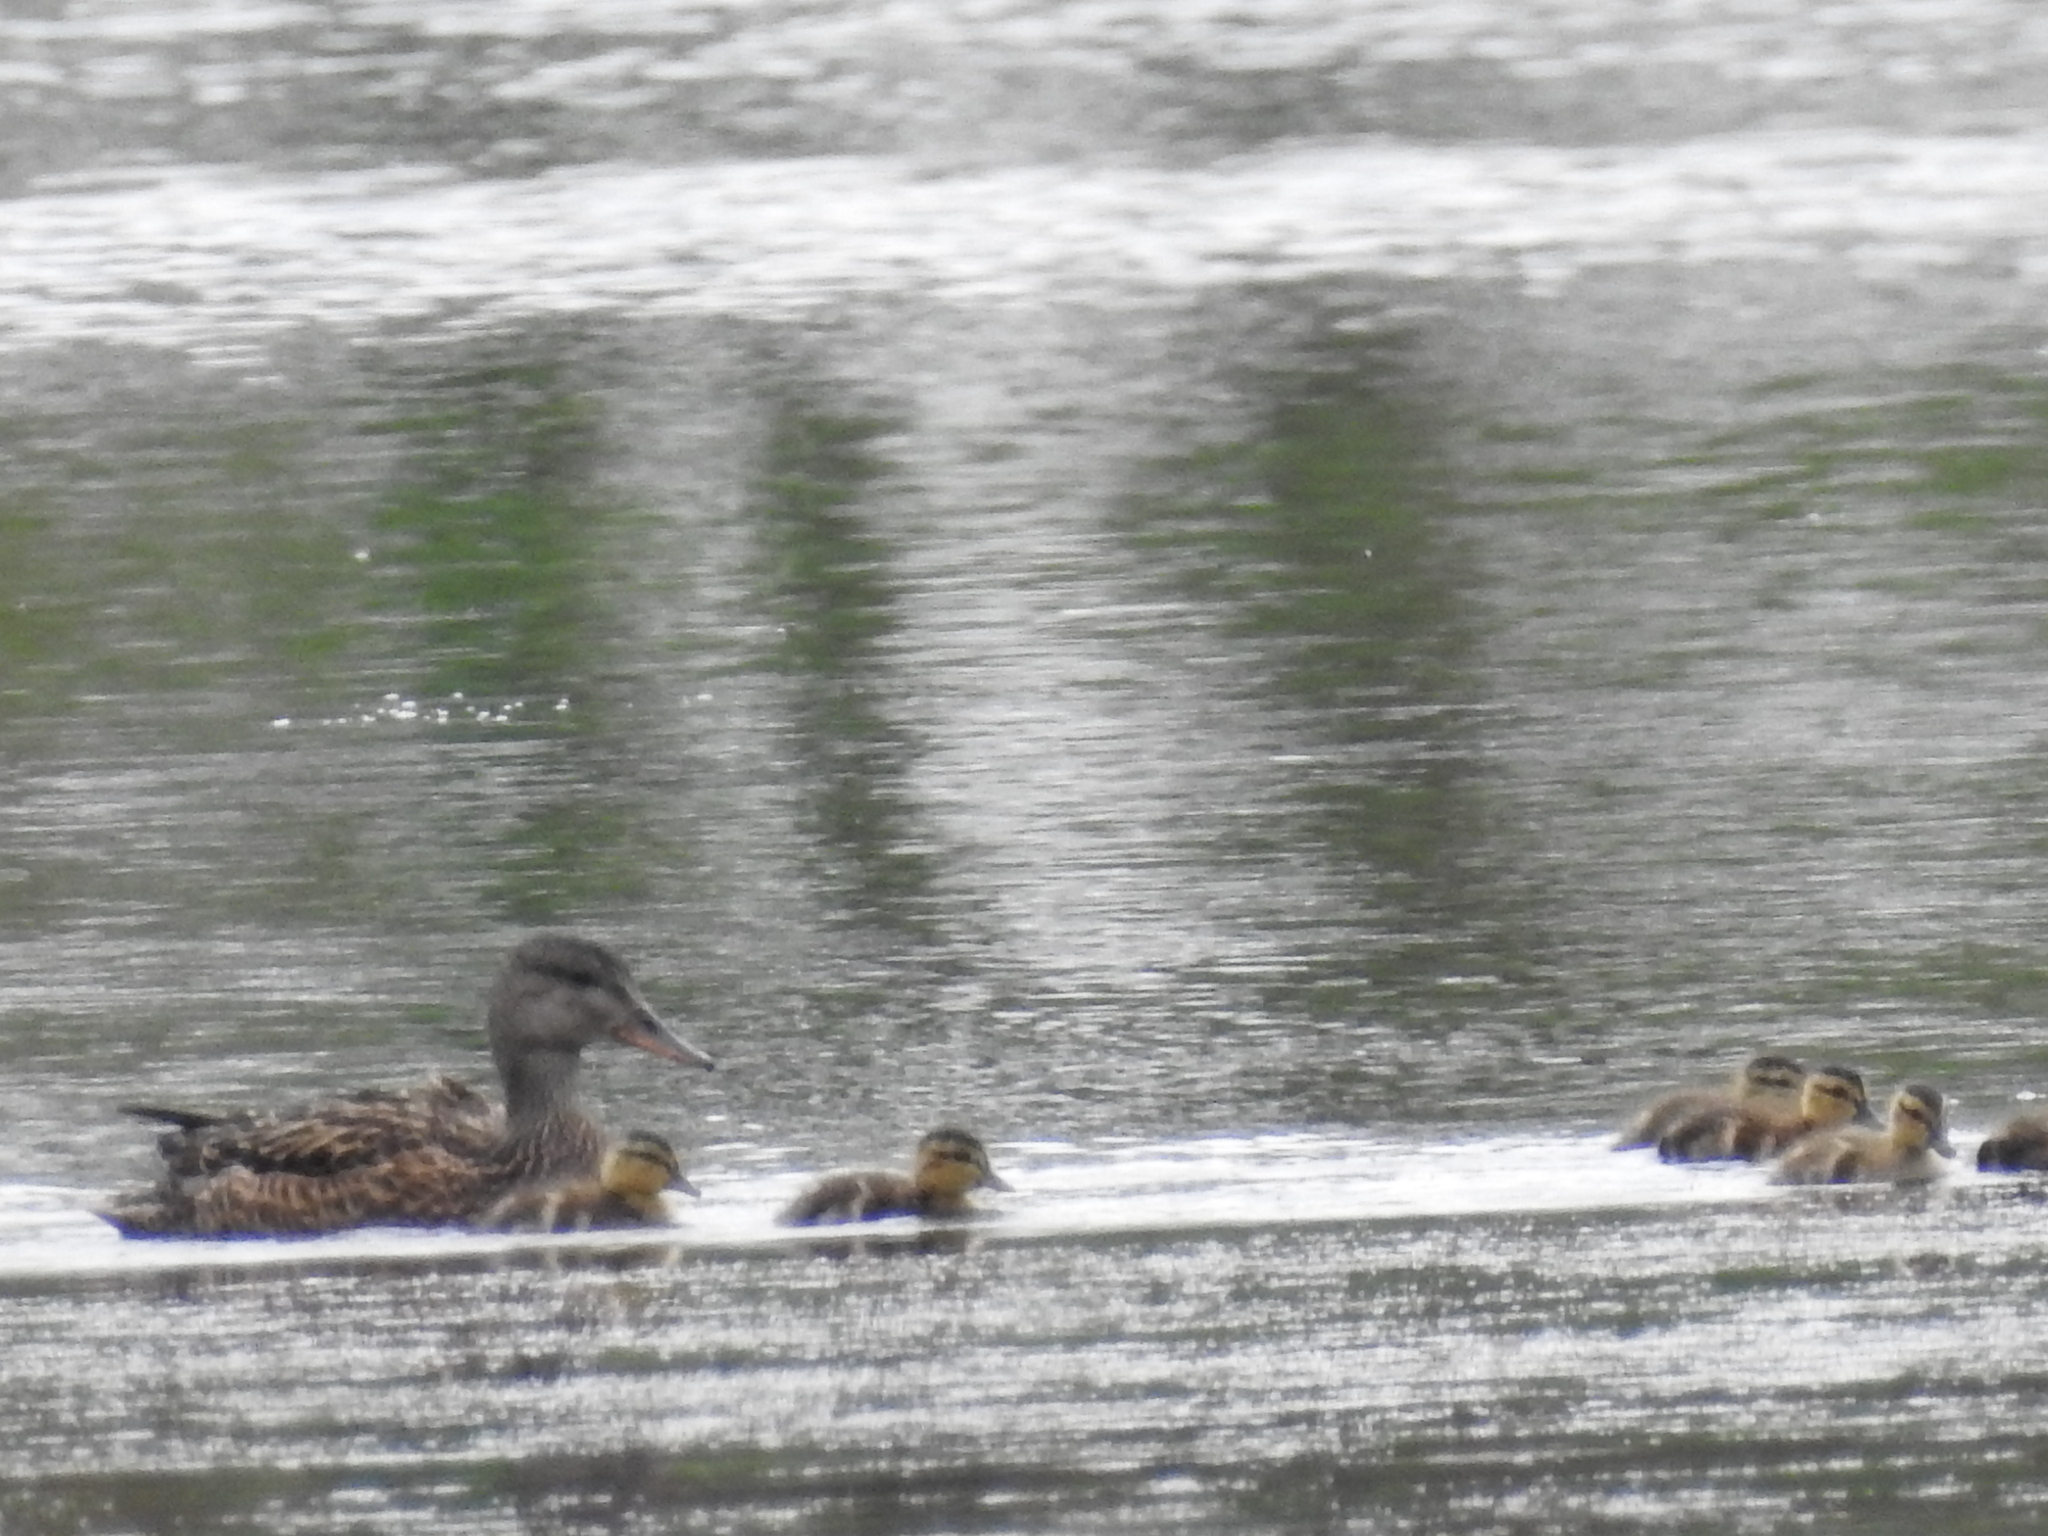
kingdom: Animalia
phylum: Chordata
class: Aves
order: Anseriformes
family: Anatidae
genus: Mareca
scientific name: Mareca strepera
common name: Gadwall
